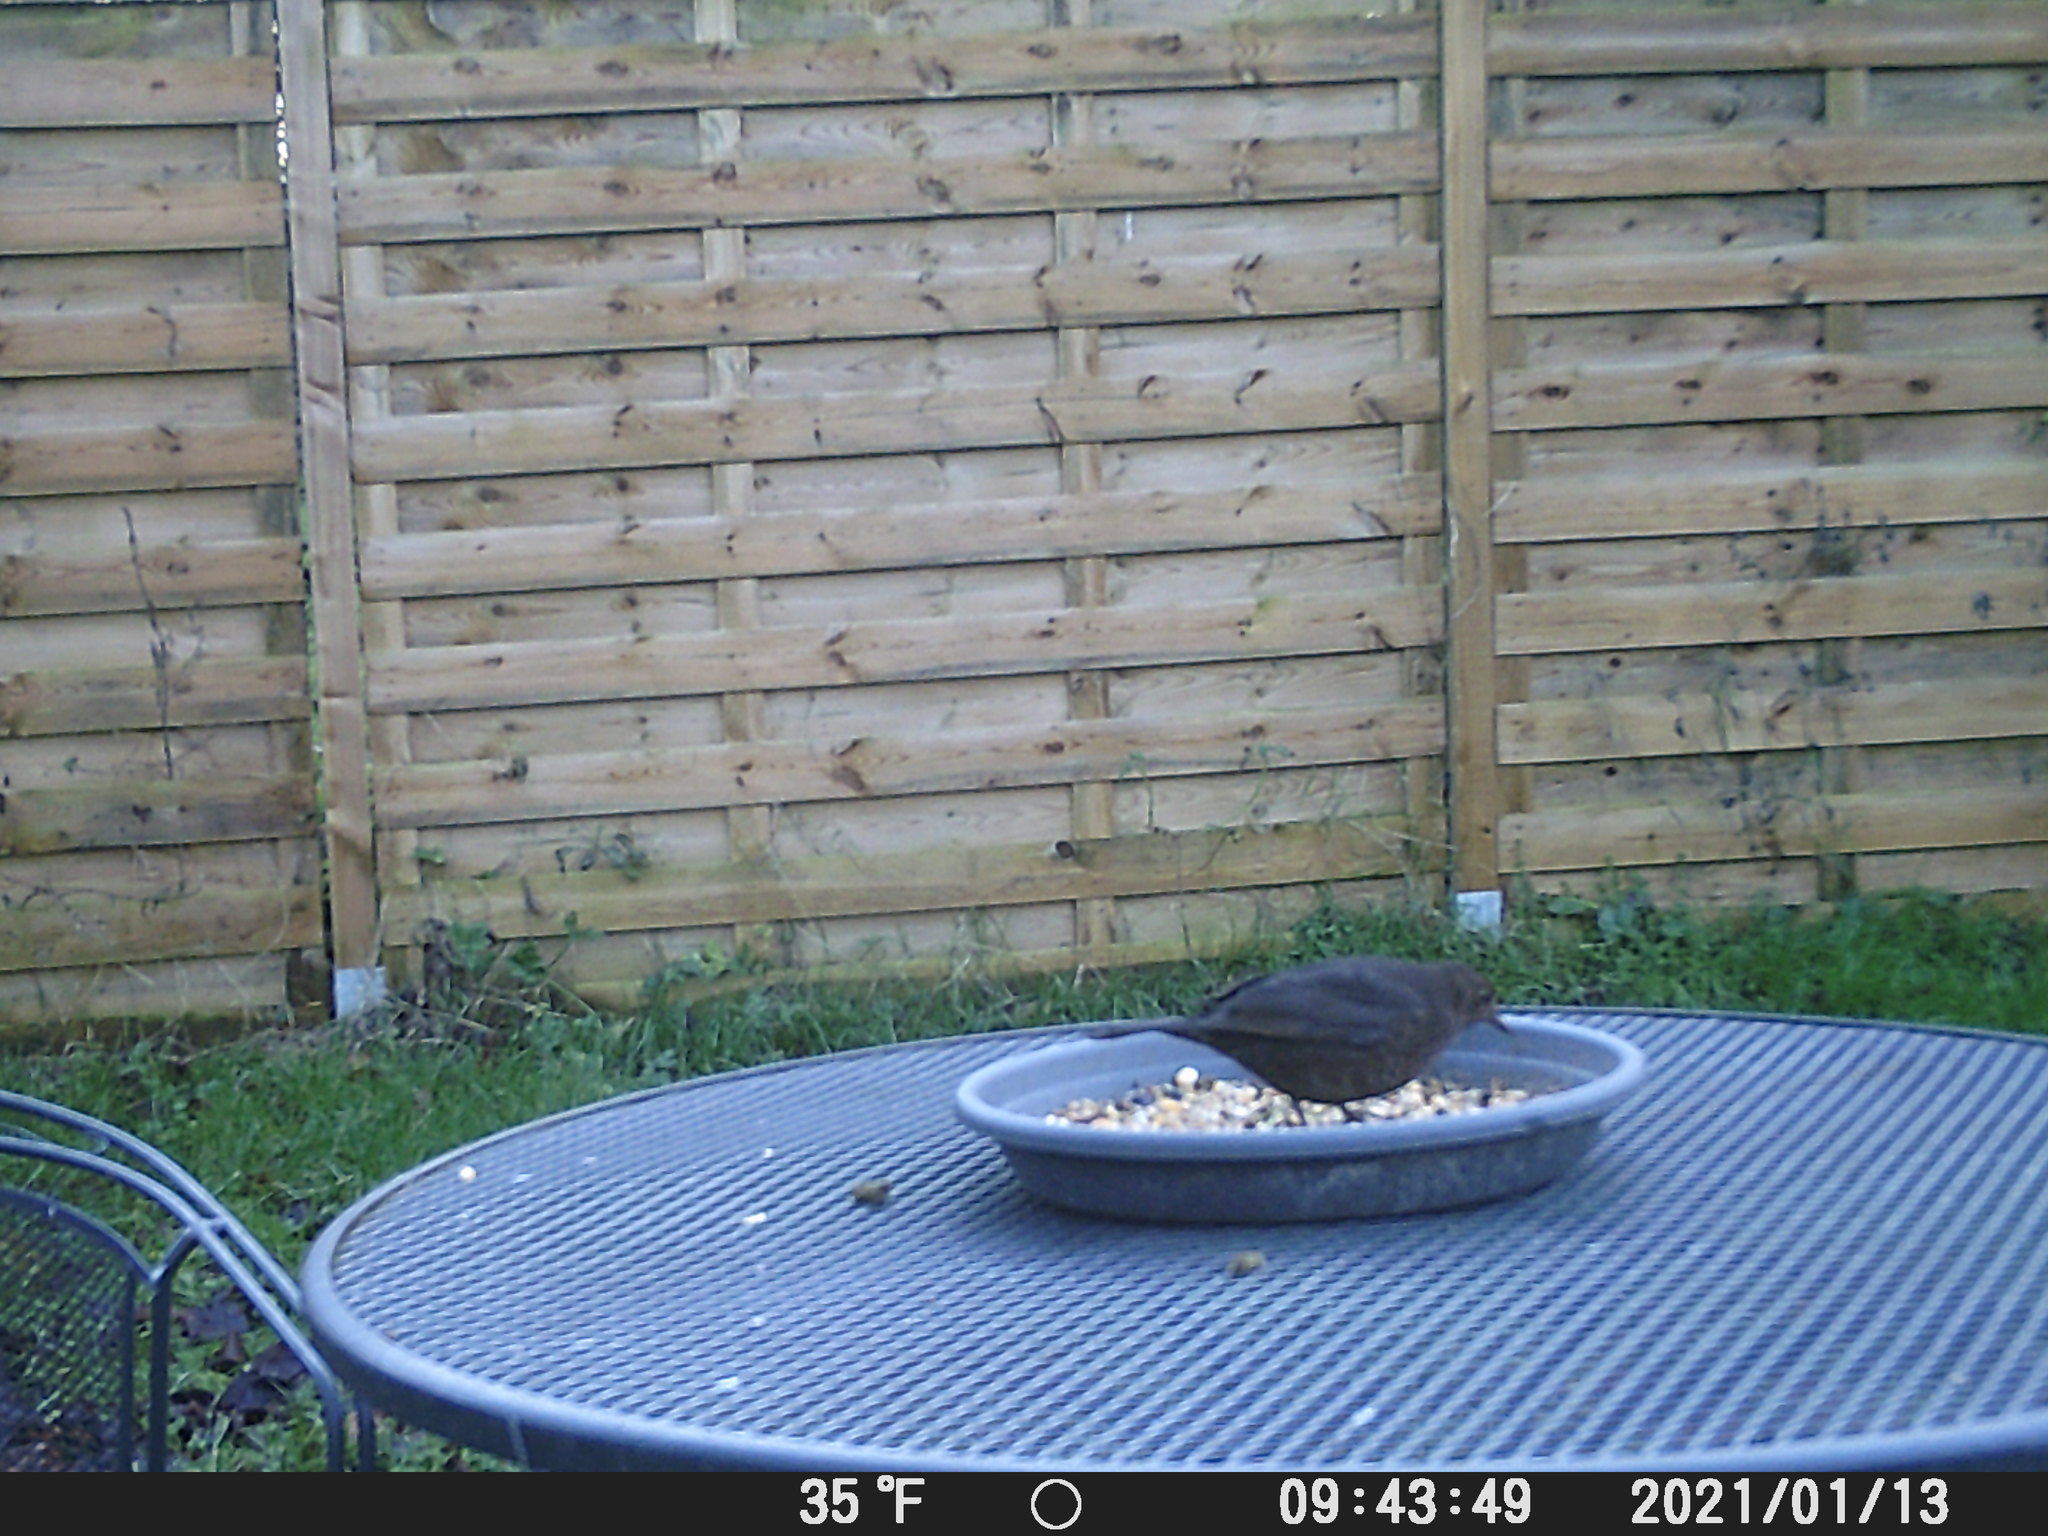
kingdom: Animalia
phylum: Chordata
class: Aves
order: Passeriformes
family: Turdidae
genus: Turdus
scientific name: Turdus merula
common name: Common blackbird
